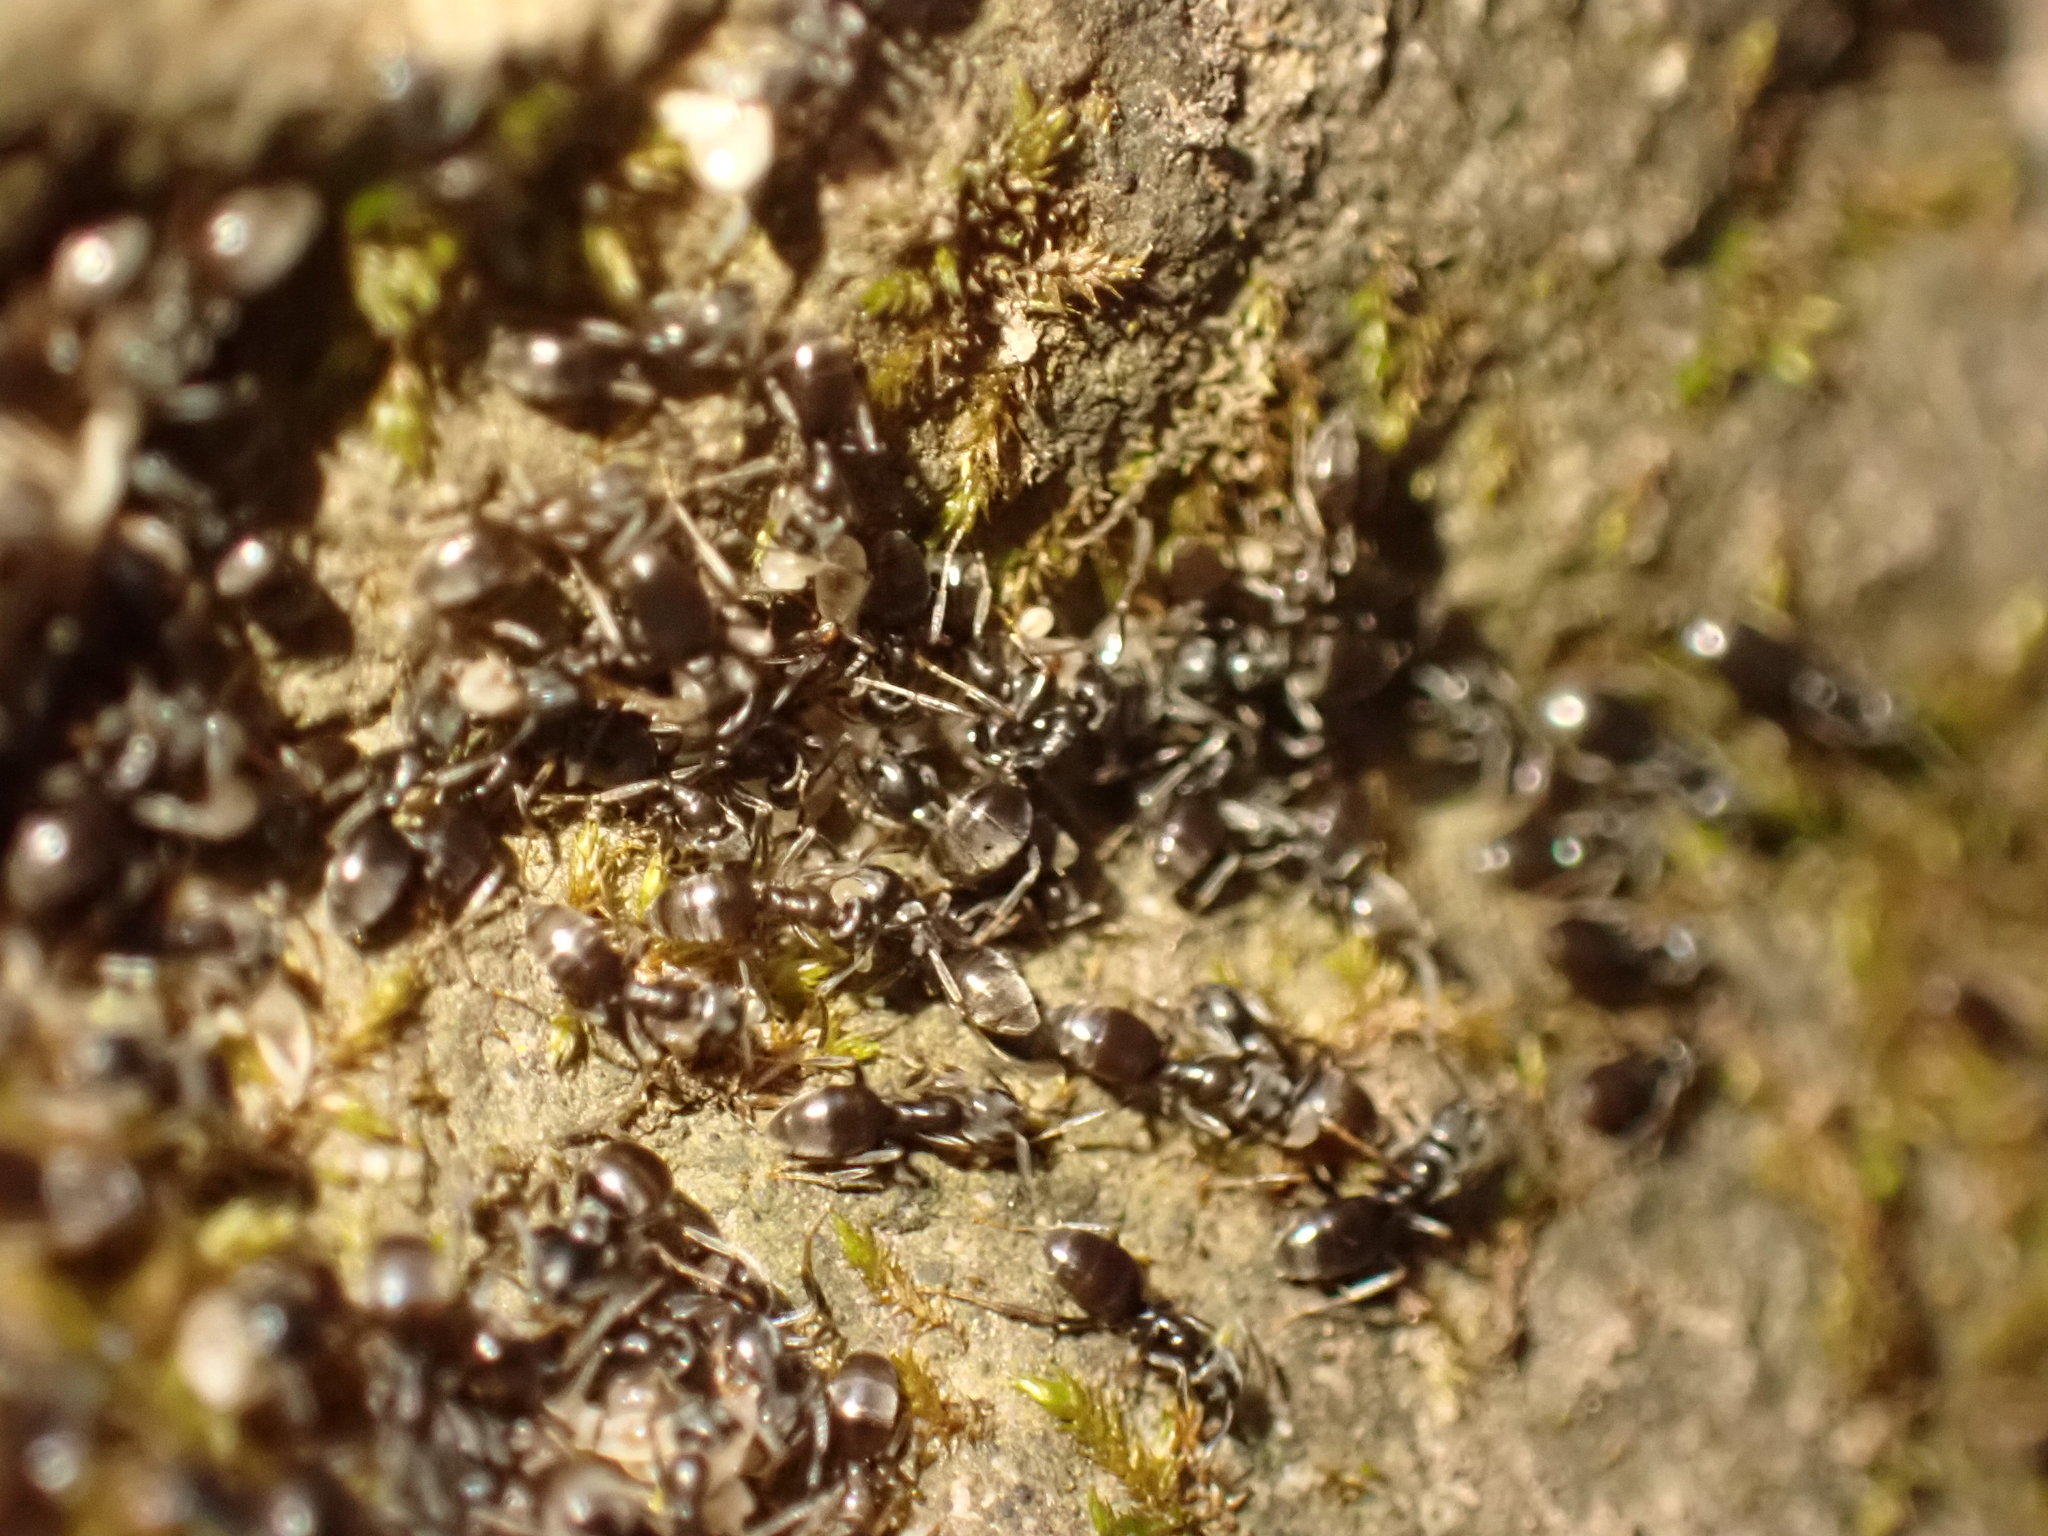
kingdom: Animalia
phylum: Arthropoda
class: Insecta
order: Hymenoptera
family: Formicidae
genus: Tapinoma
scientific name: Tapinoma sessile
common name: Odorous house ant
